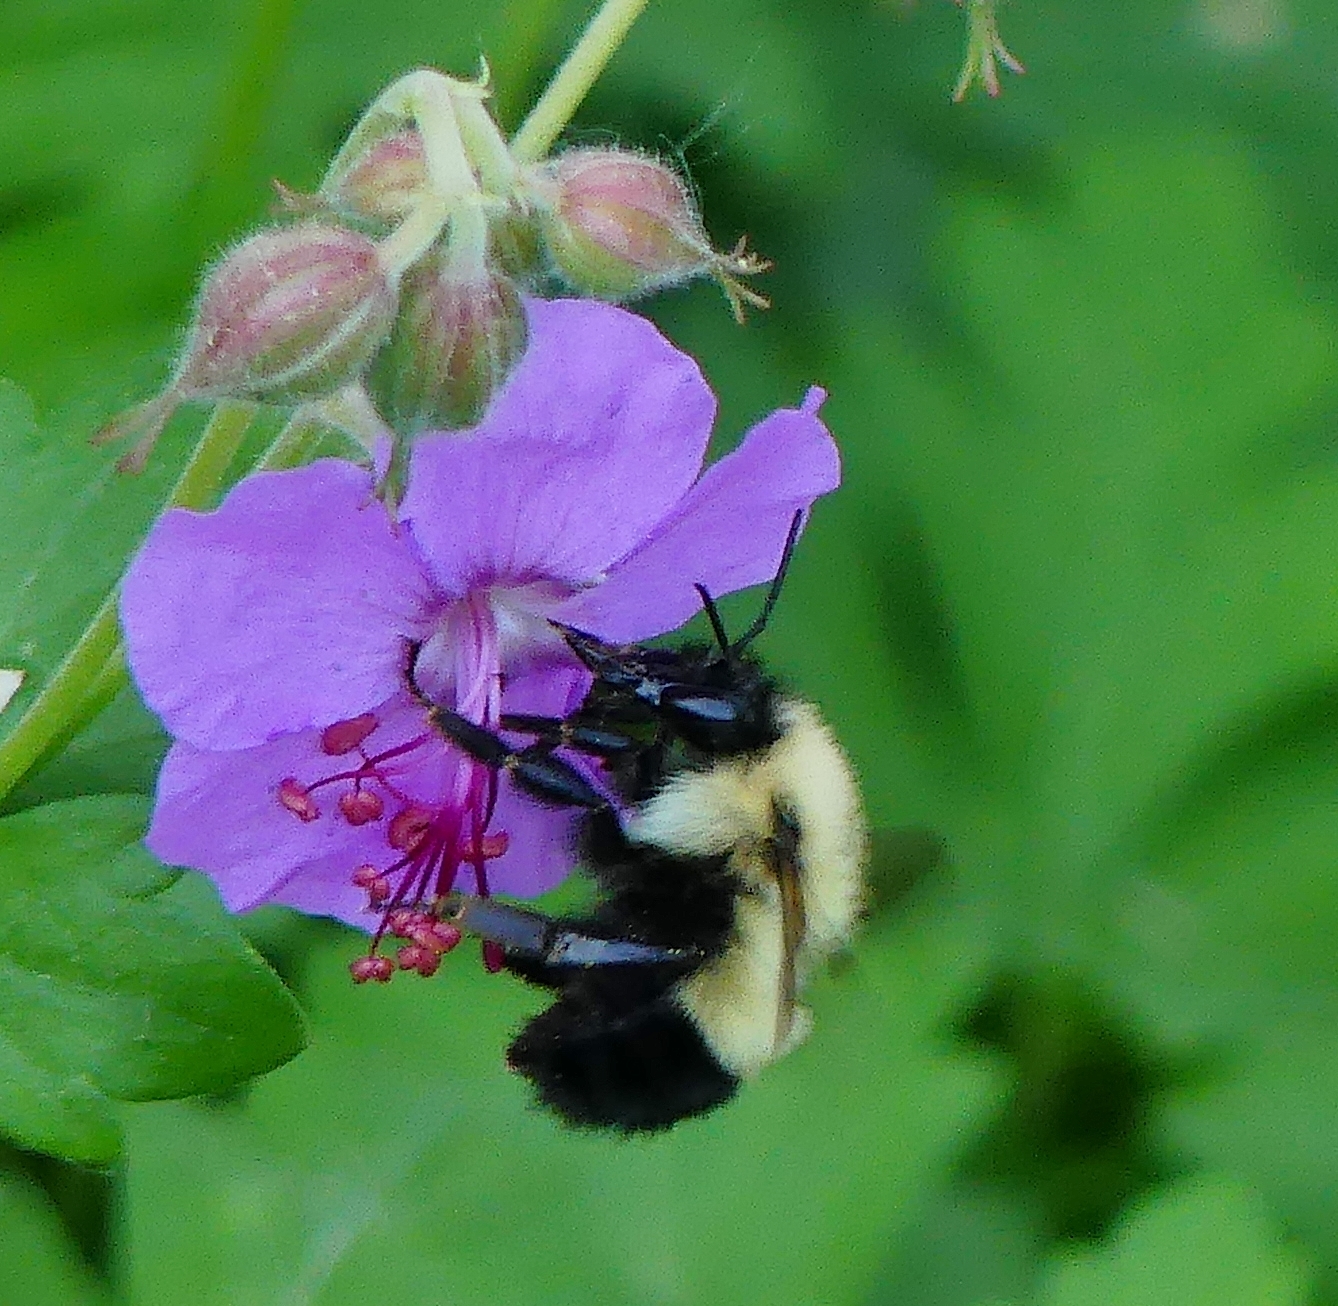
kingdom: Animalia
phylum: Arthropoda
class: Insecta
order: Hymenoptera
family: Apidae
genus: Bombus
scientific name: Bombus vagans
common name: Half-black bumble bee
